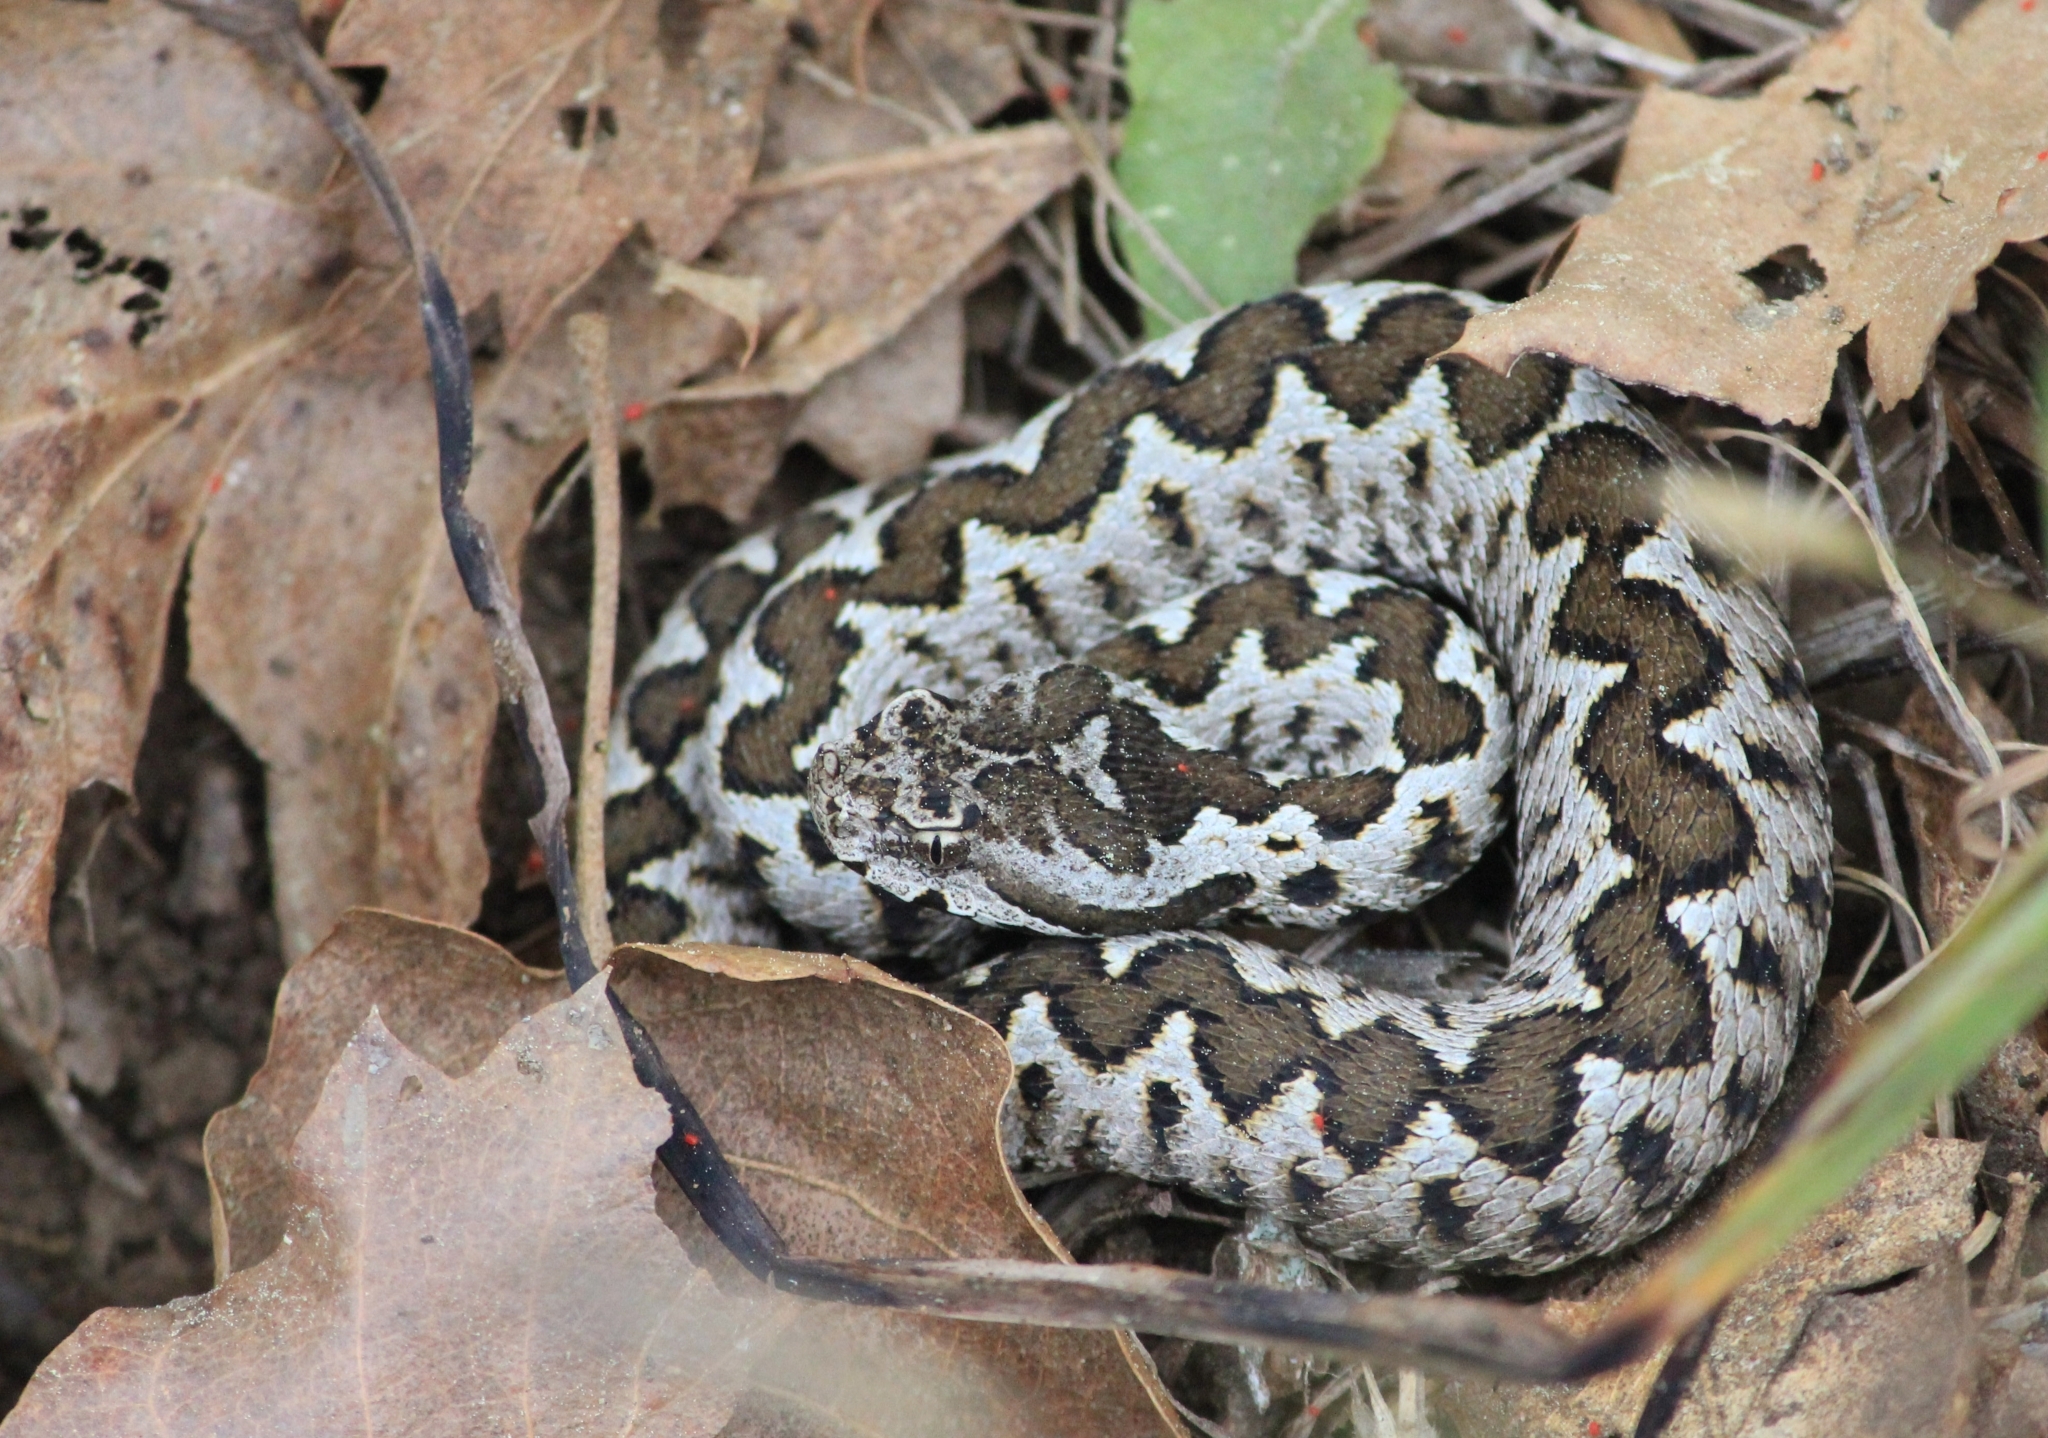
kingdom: Animalia
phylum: Chordata
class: Squamata
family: Viperidae
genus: Vipera
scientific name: Vipera ammodytes
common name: Sand viper
